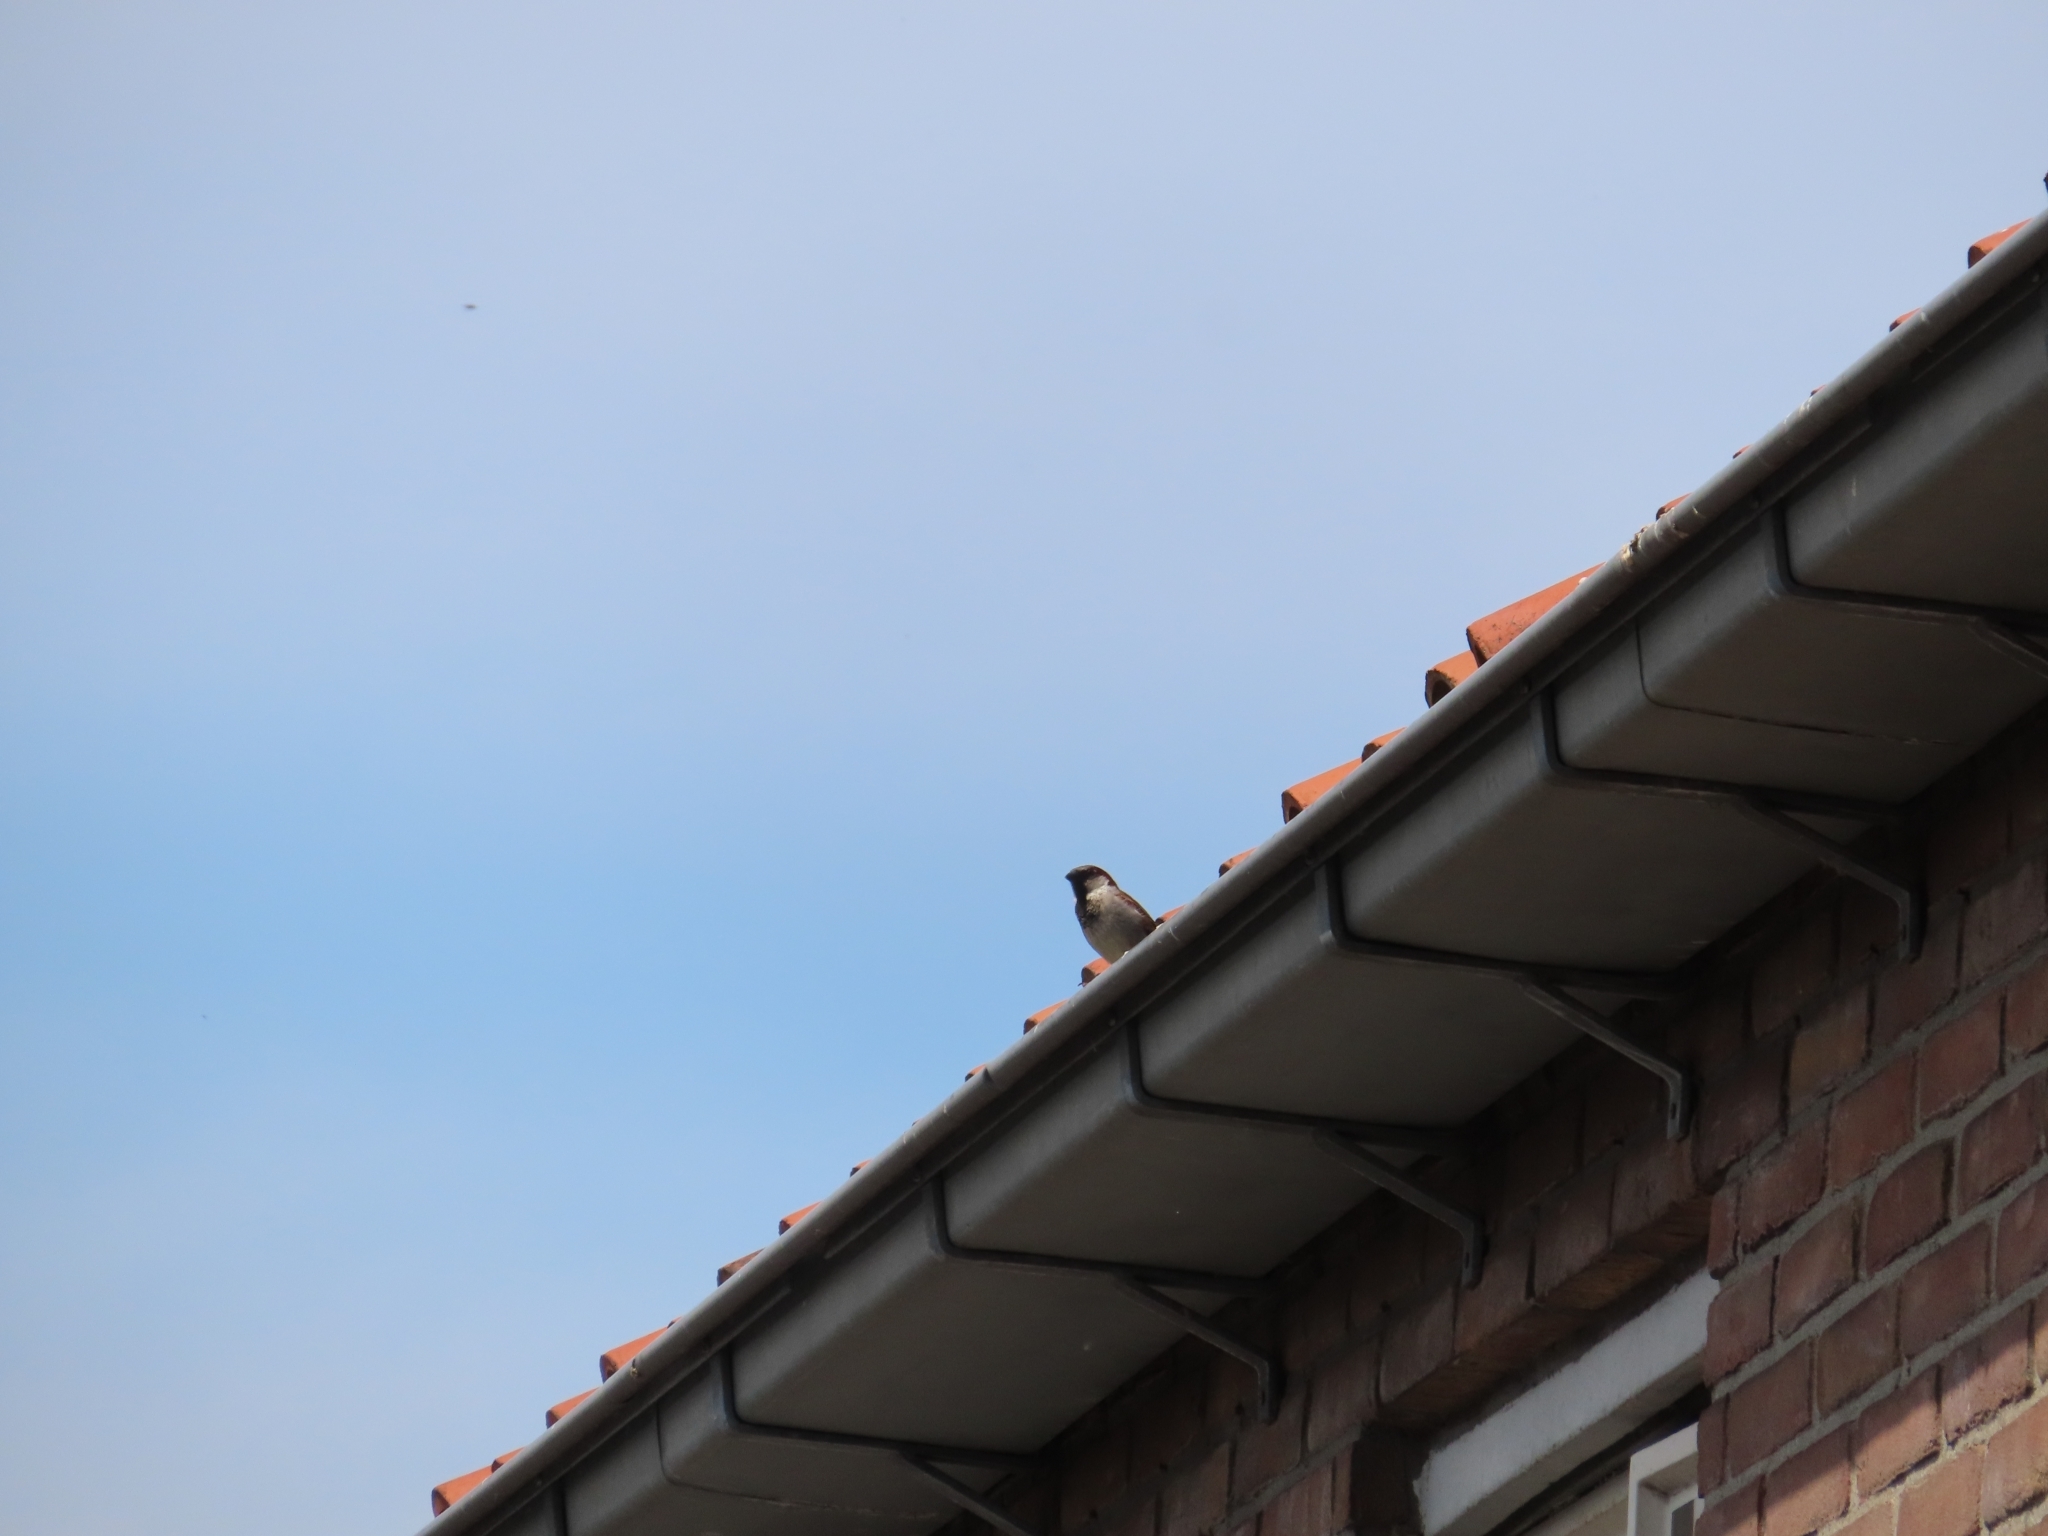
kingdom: Animalia
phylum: Chordata
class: Aves
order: Passeriformes
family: Passeridae
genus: Passer
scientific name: Passer domesticus
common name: House sparrow
